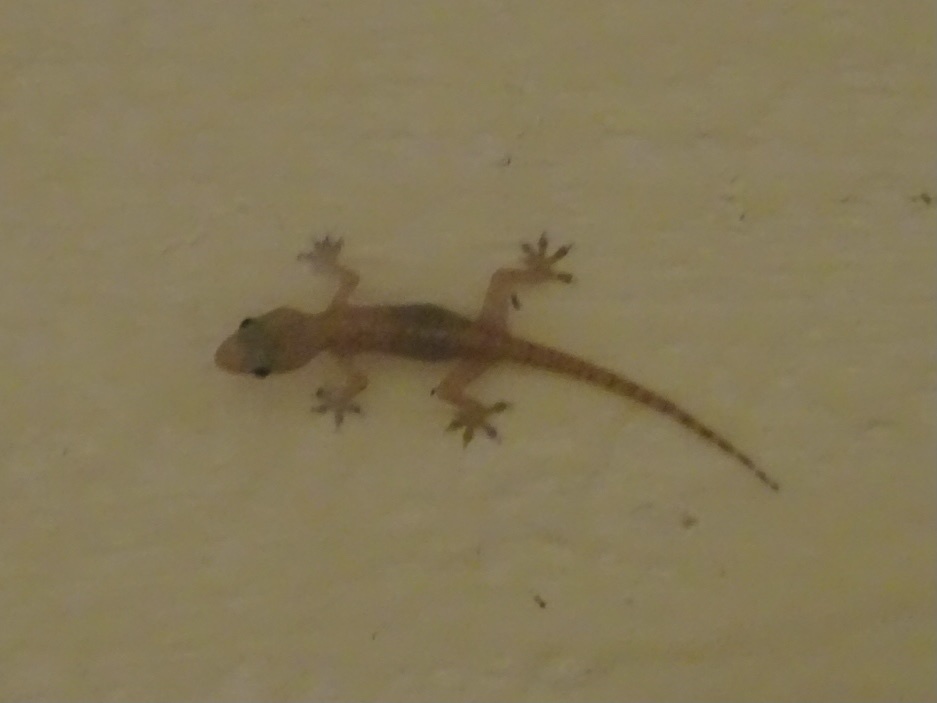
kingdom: Animalia
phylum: Chordata
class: Squamata
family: Gekkonidae
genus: Hemidactylus
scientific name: Hemidactylus bowringii
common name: Oriental leaf-toed gecko
